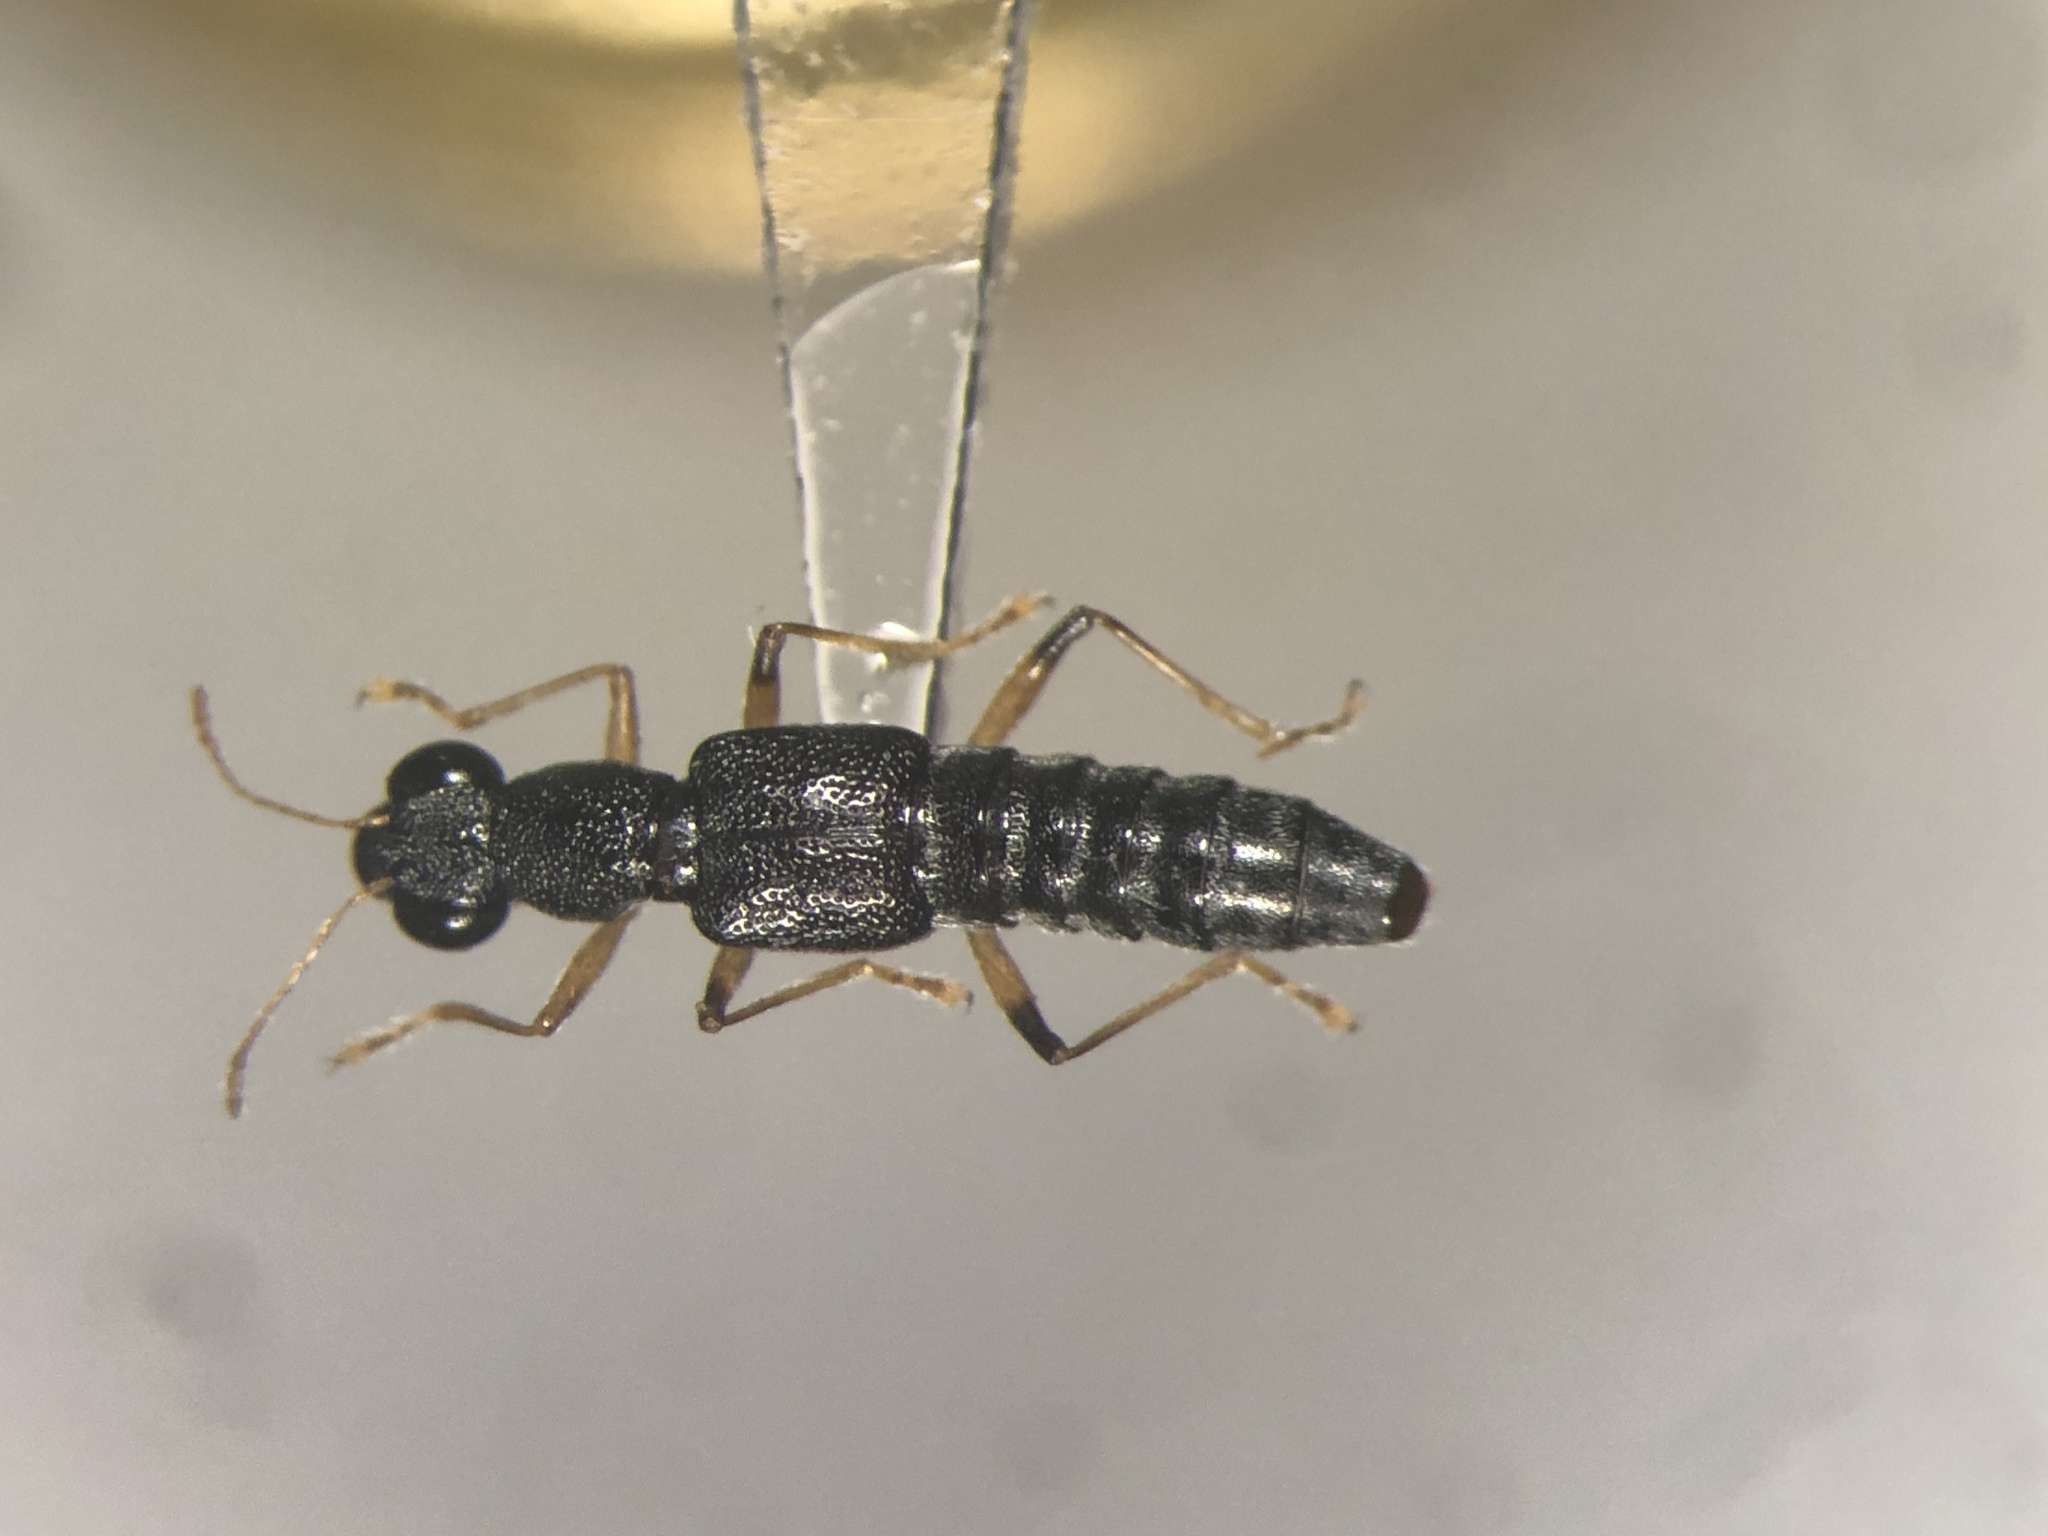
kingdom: Animalia
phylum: Arthropoda
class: Insecta
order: Coleoptera
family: Staphylinidae
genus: Stenus
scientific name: Stenus flavicornis
